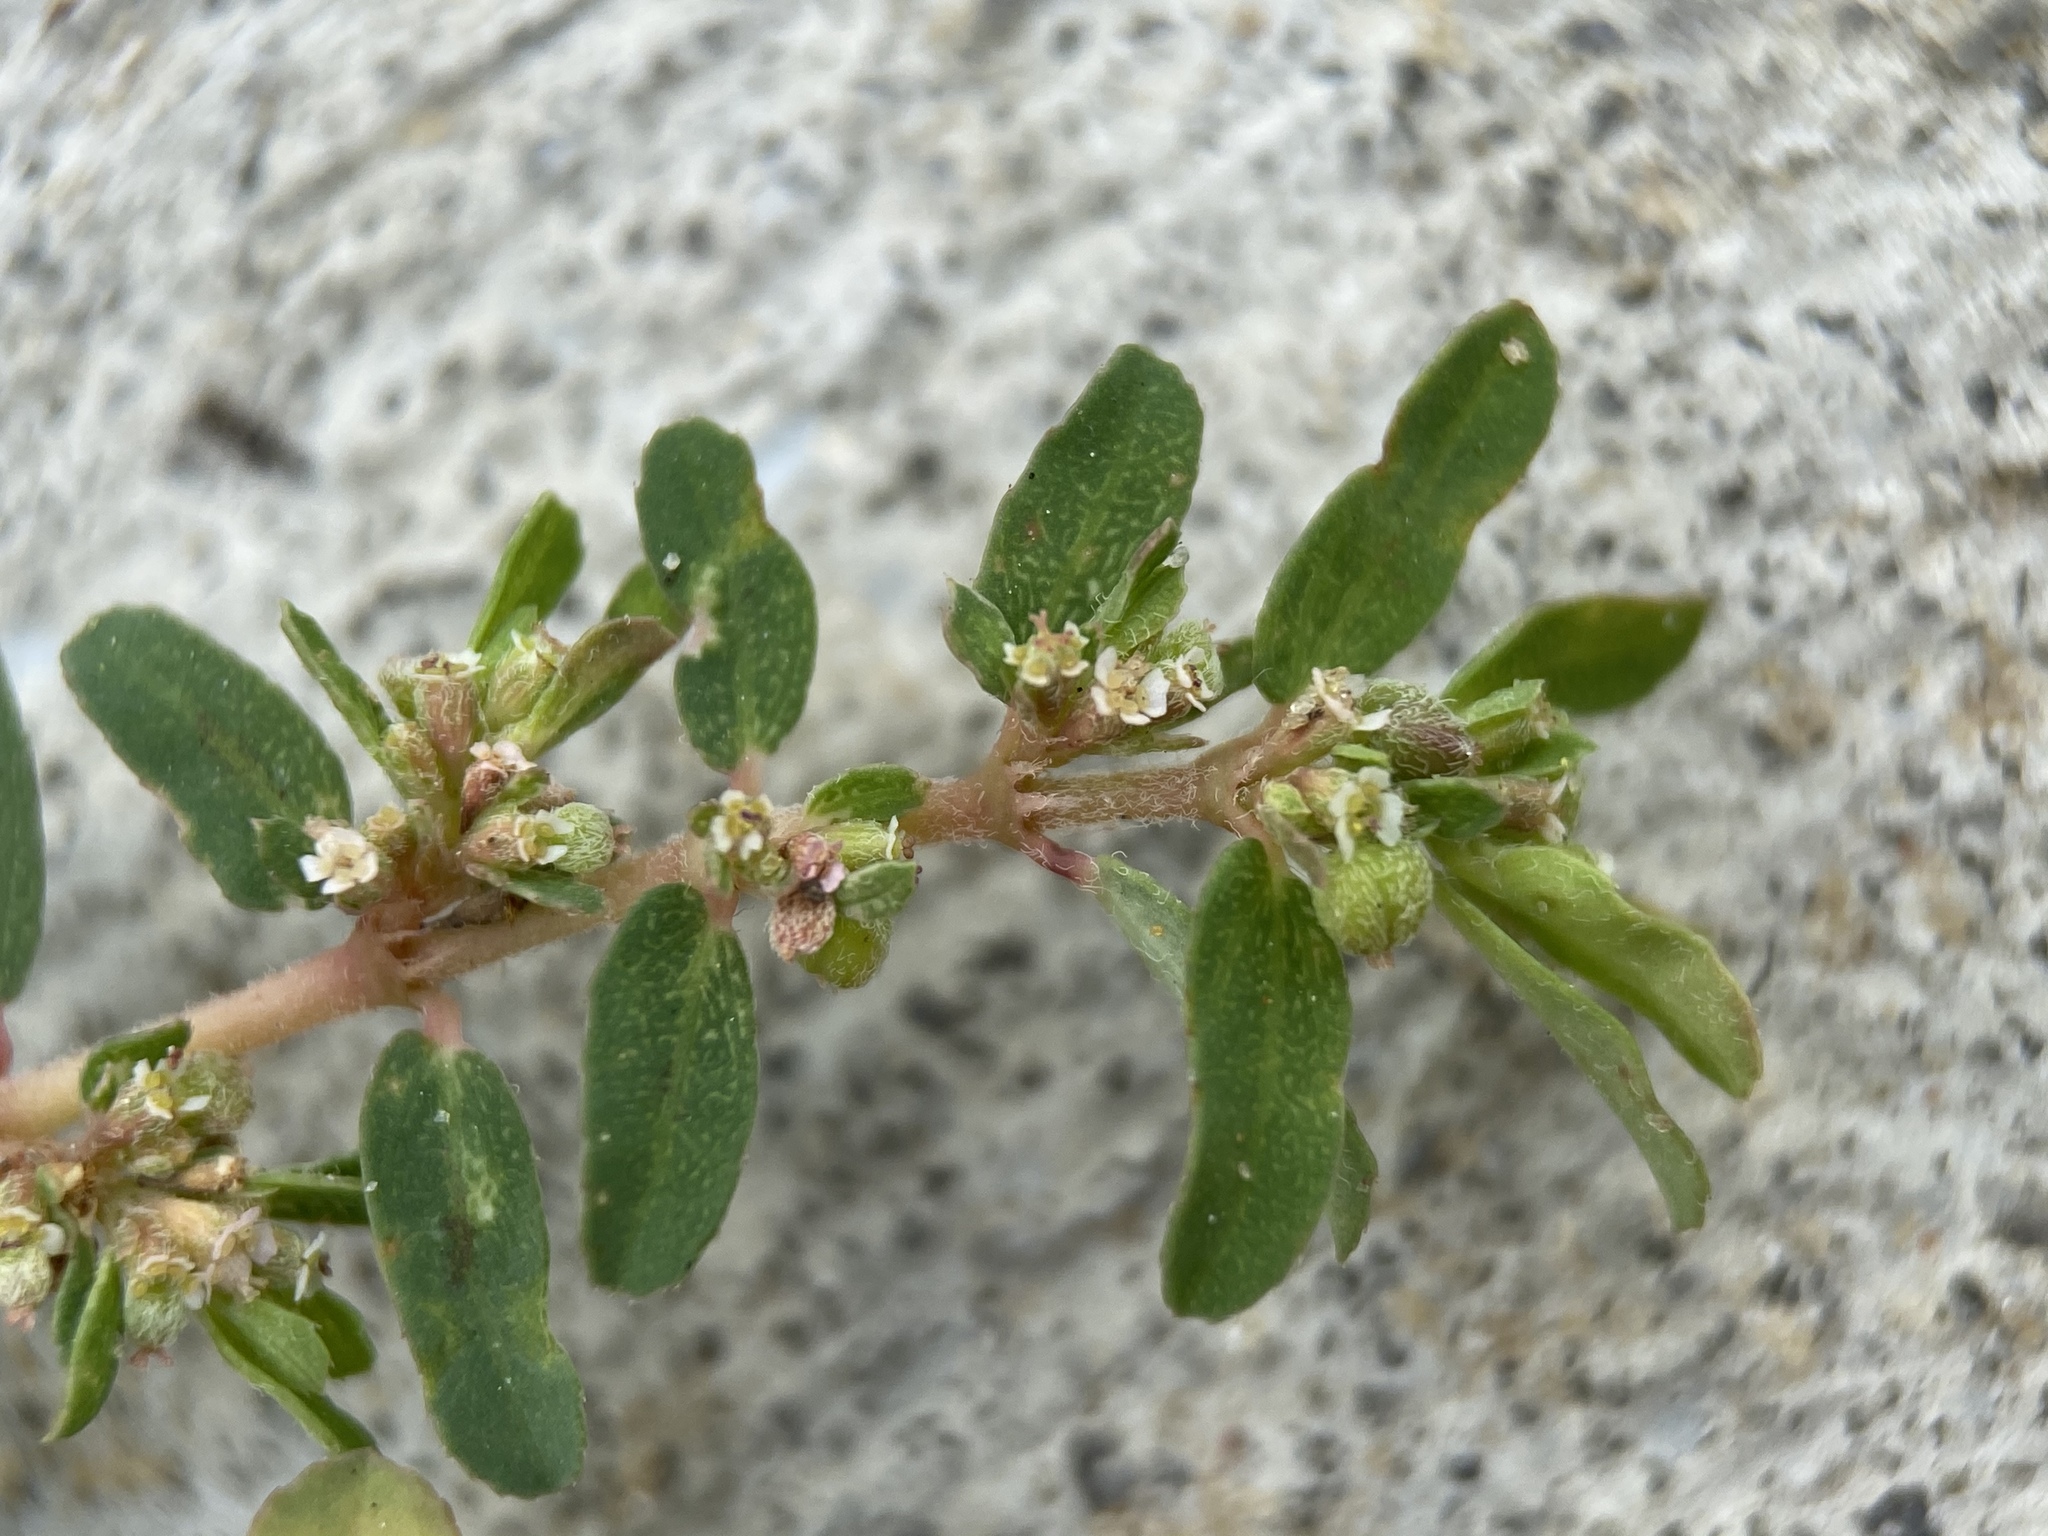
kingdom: Plantae
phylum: Tracheophyta
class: Magnoliopsida
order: Malpighiales
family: Euphorbiaceae
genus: Euphorbia
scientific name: Euphorbia maculata
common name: Spotted spurge
